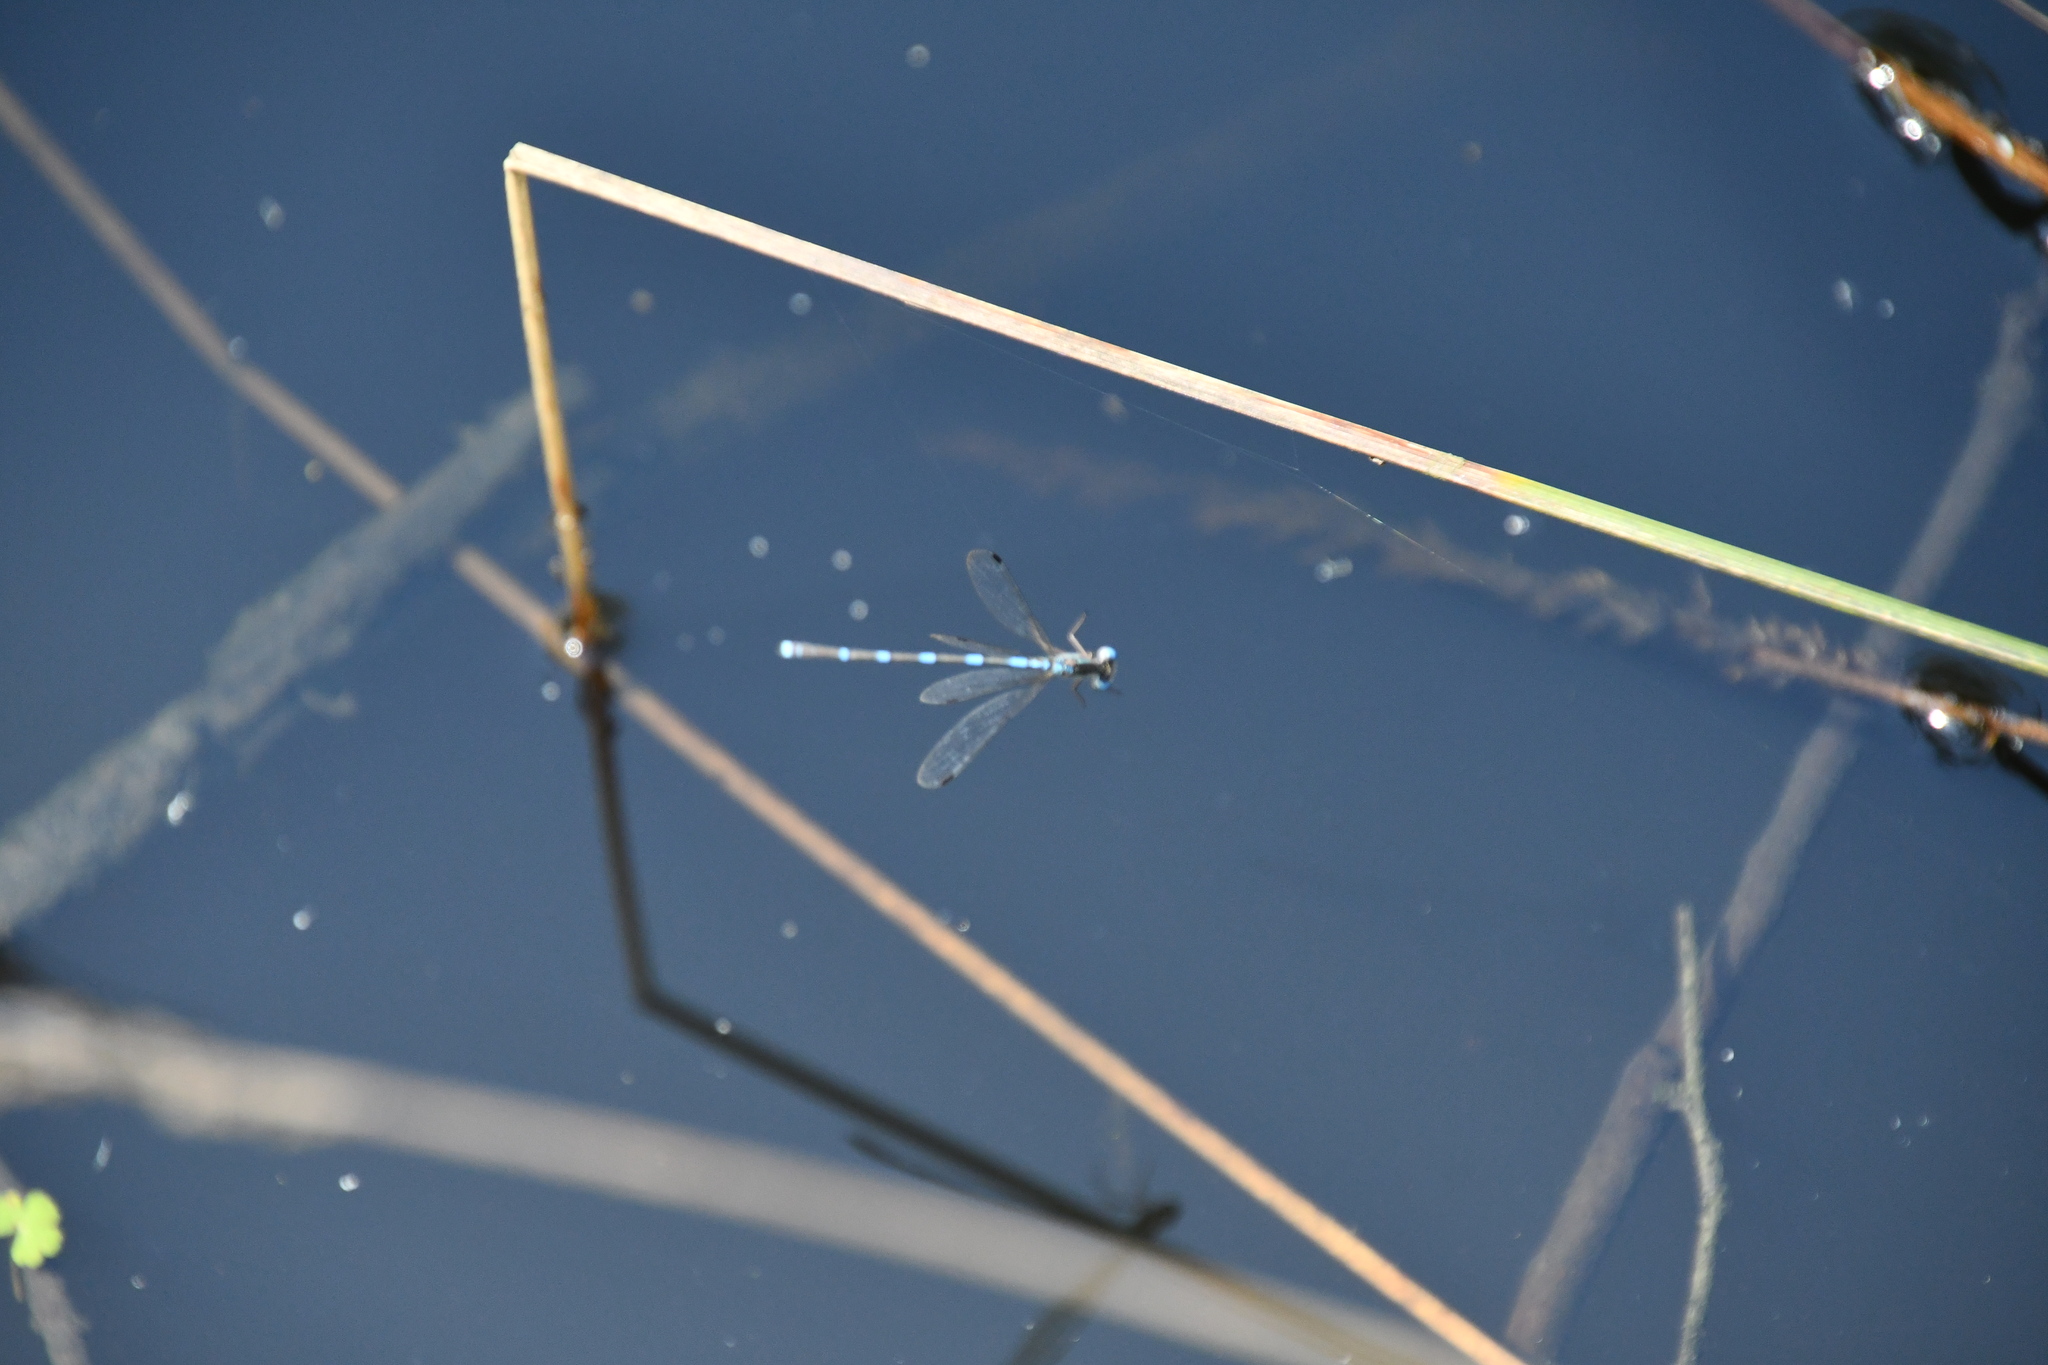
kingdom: Animalia
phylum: Arthropoda
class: Insecta
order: Odonata
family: Lestidae
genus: Austrolestes
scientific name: Austrolestes leda
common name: Wandering ringtail
